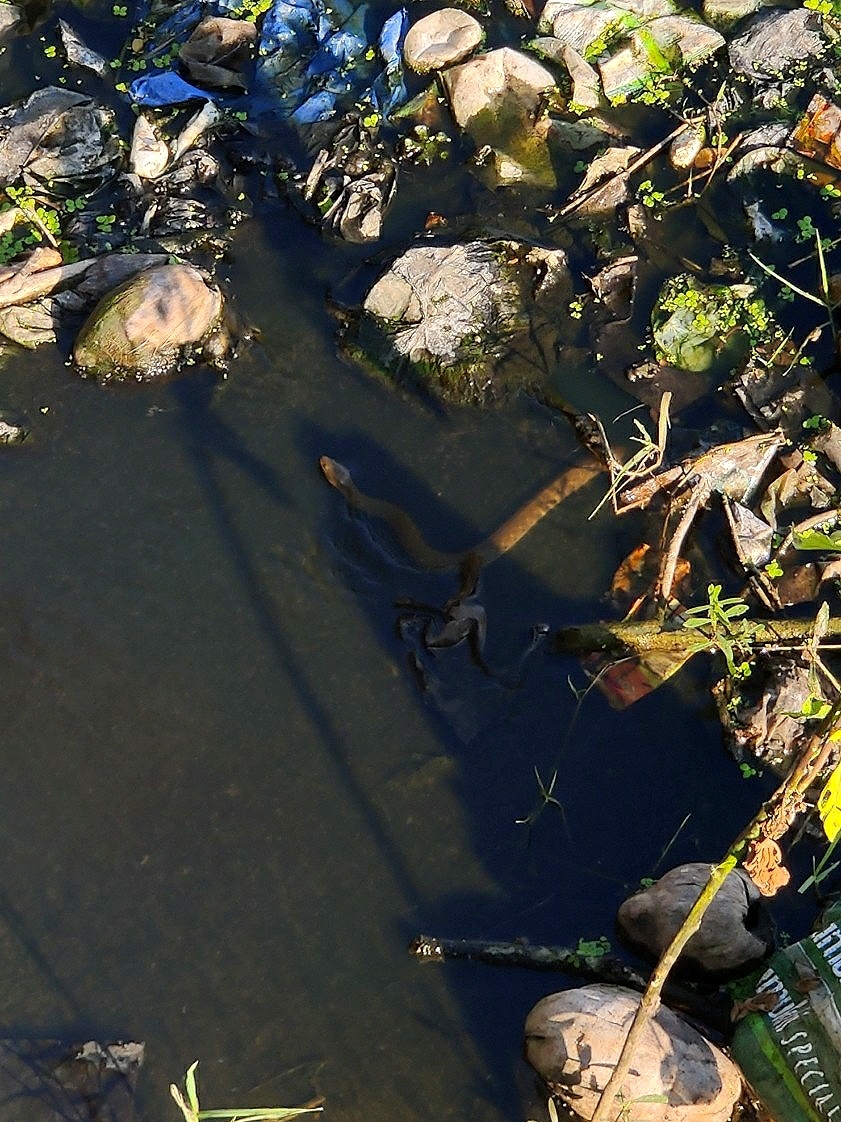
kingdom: Animalia
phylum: Chordata
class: Squamata
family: Colubridae
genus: Fowlea
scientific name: Fowlea piscator
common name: Asiatic water snake
